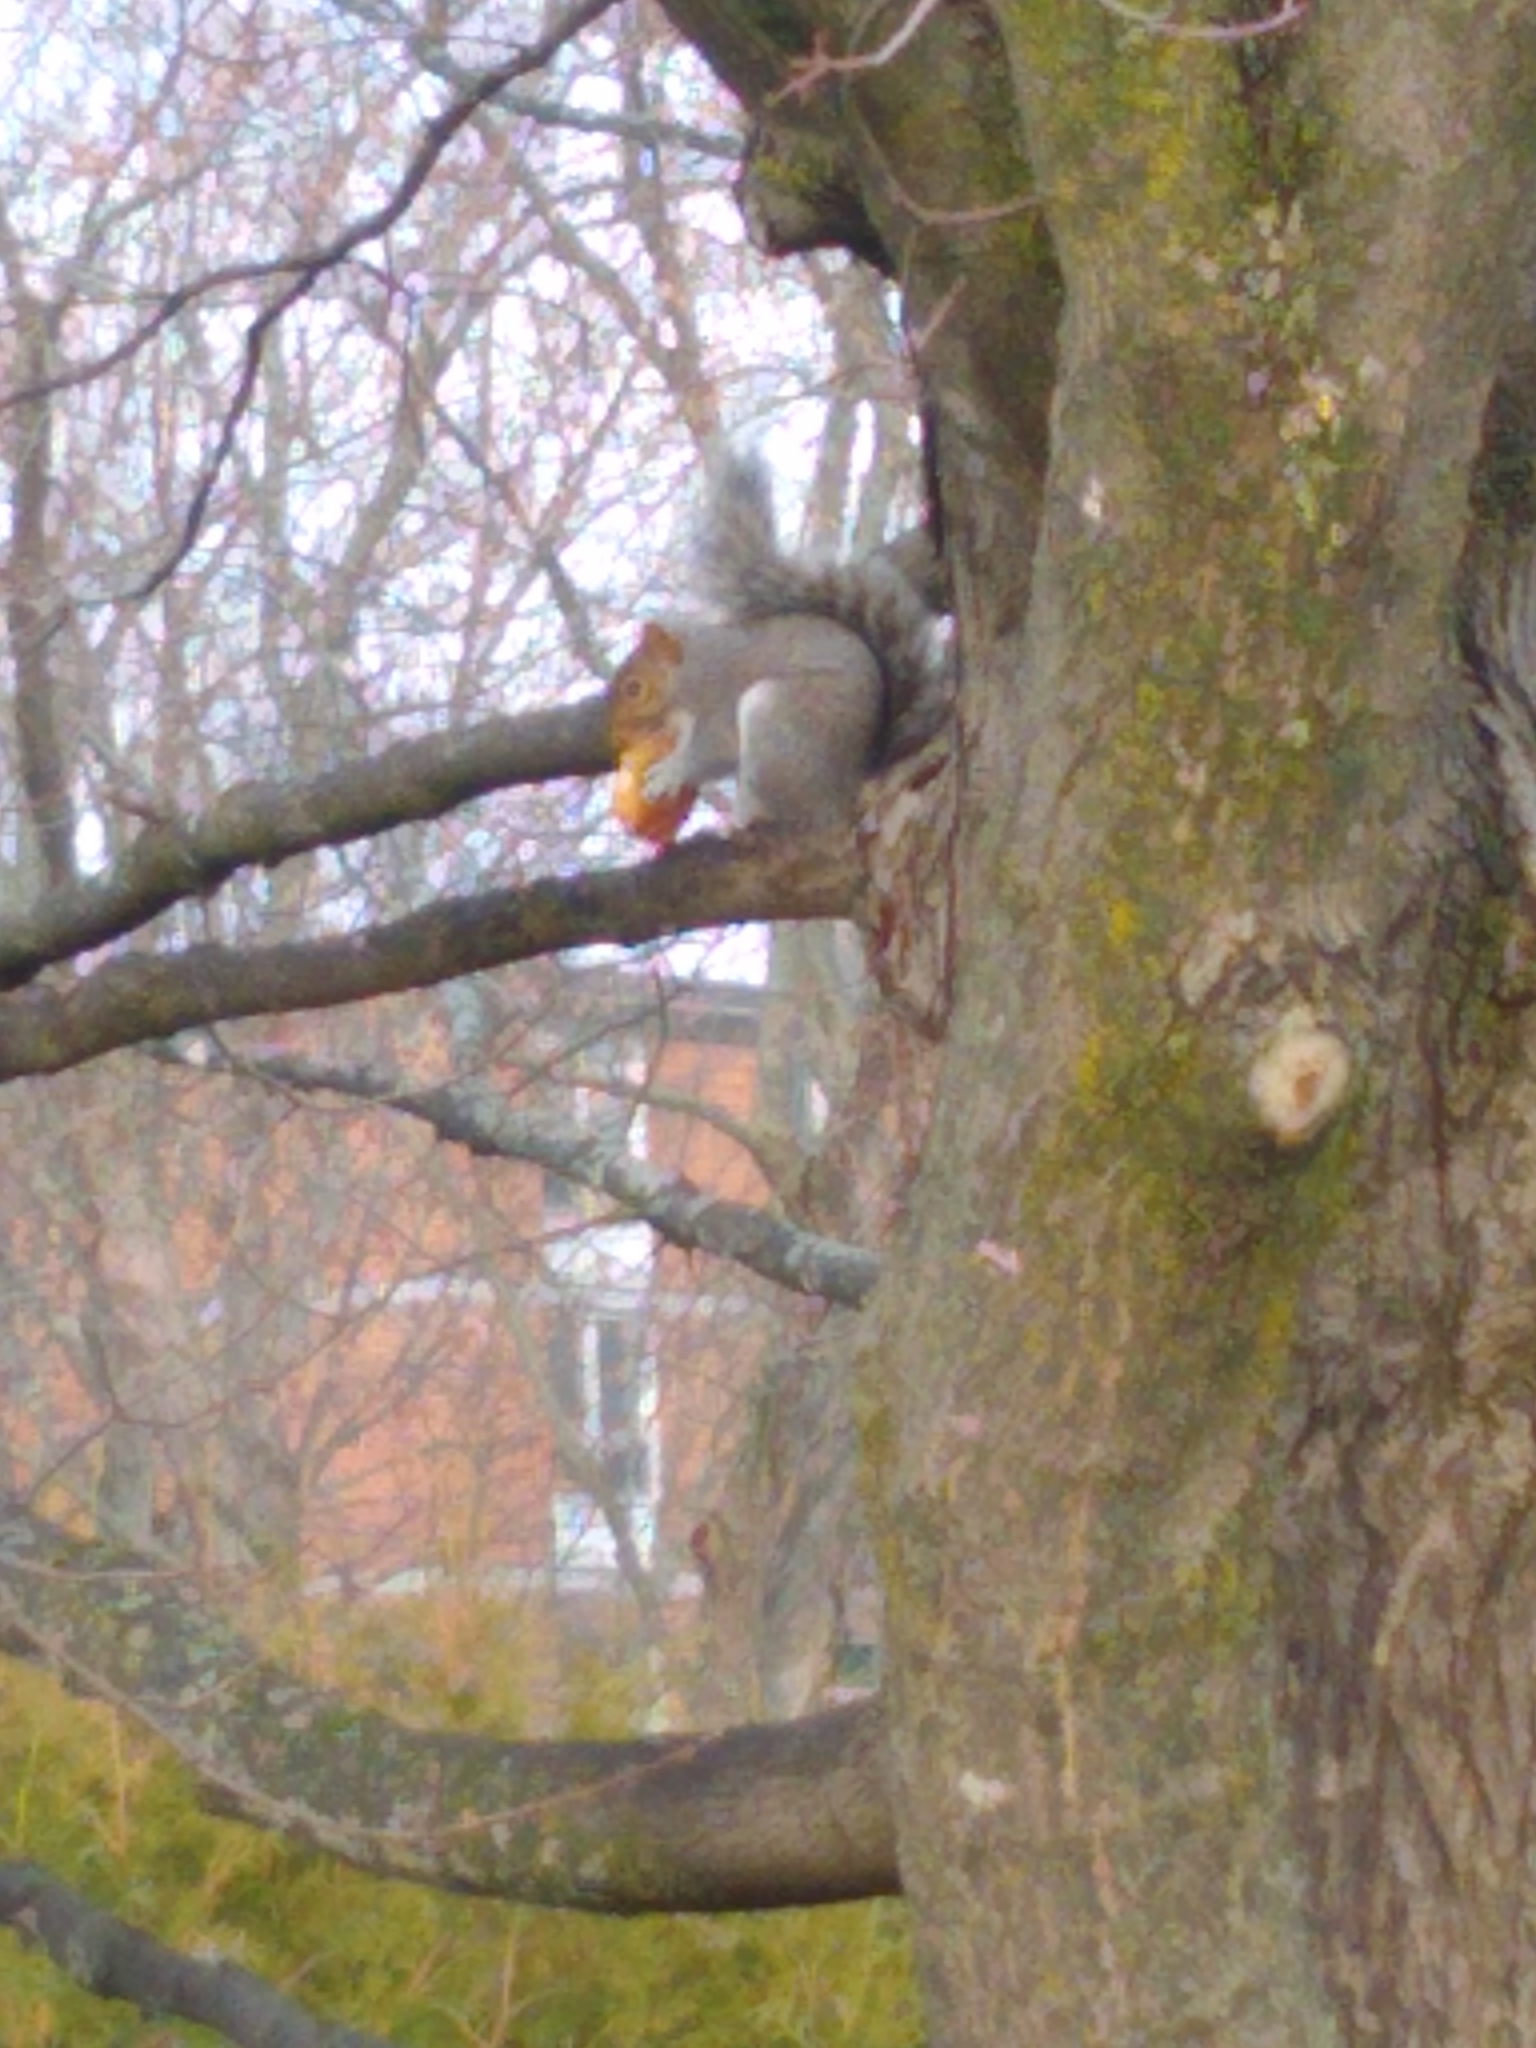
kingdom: Animalia
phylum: Chordata
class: Mammalia
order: Rodentia
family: Sciuridae
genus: Sciurus
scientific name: Sciurus carolinensis
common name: Eastern gray squirrel
